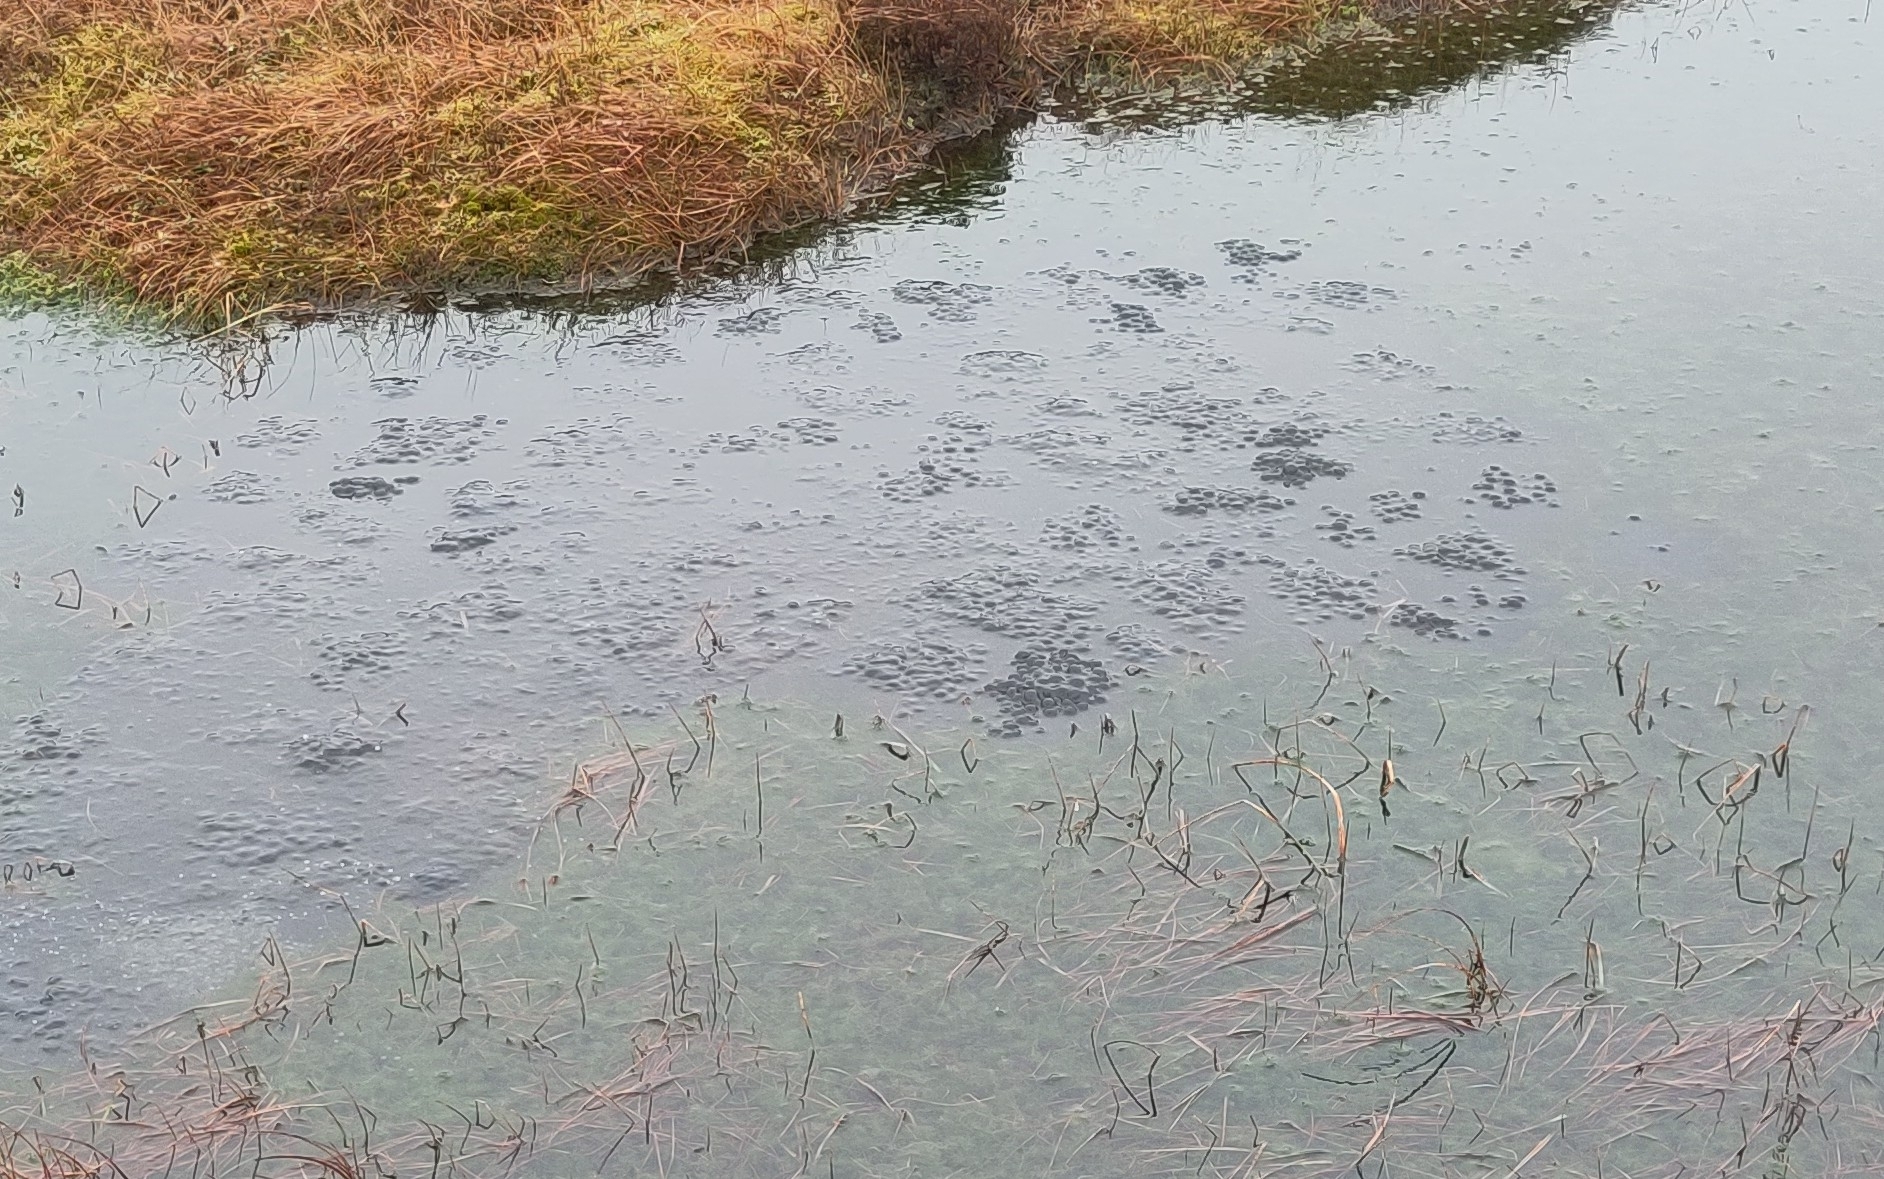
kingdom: Animalia
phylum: Chordata
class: Amphibia
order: Anura
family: Ranidae
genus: Rana
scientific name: Rana temporaria
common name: Common frog
